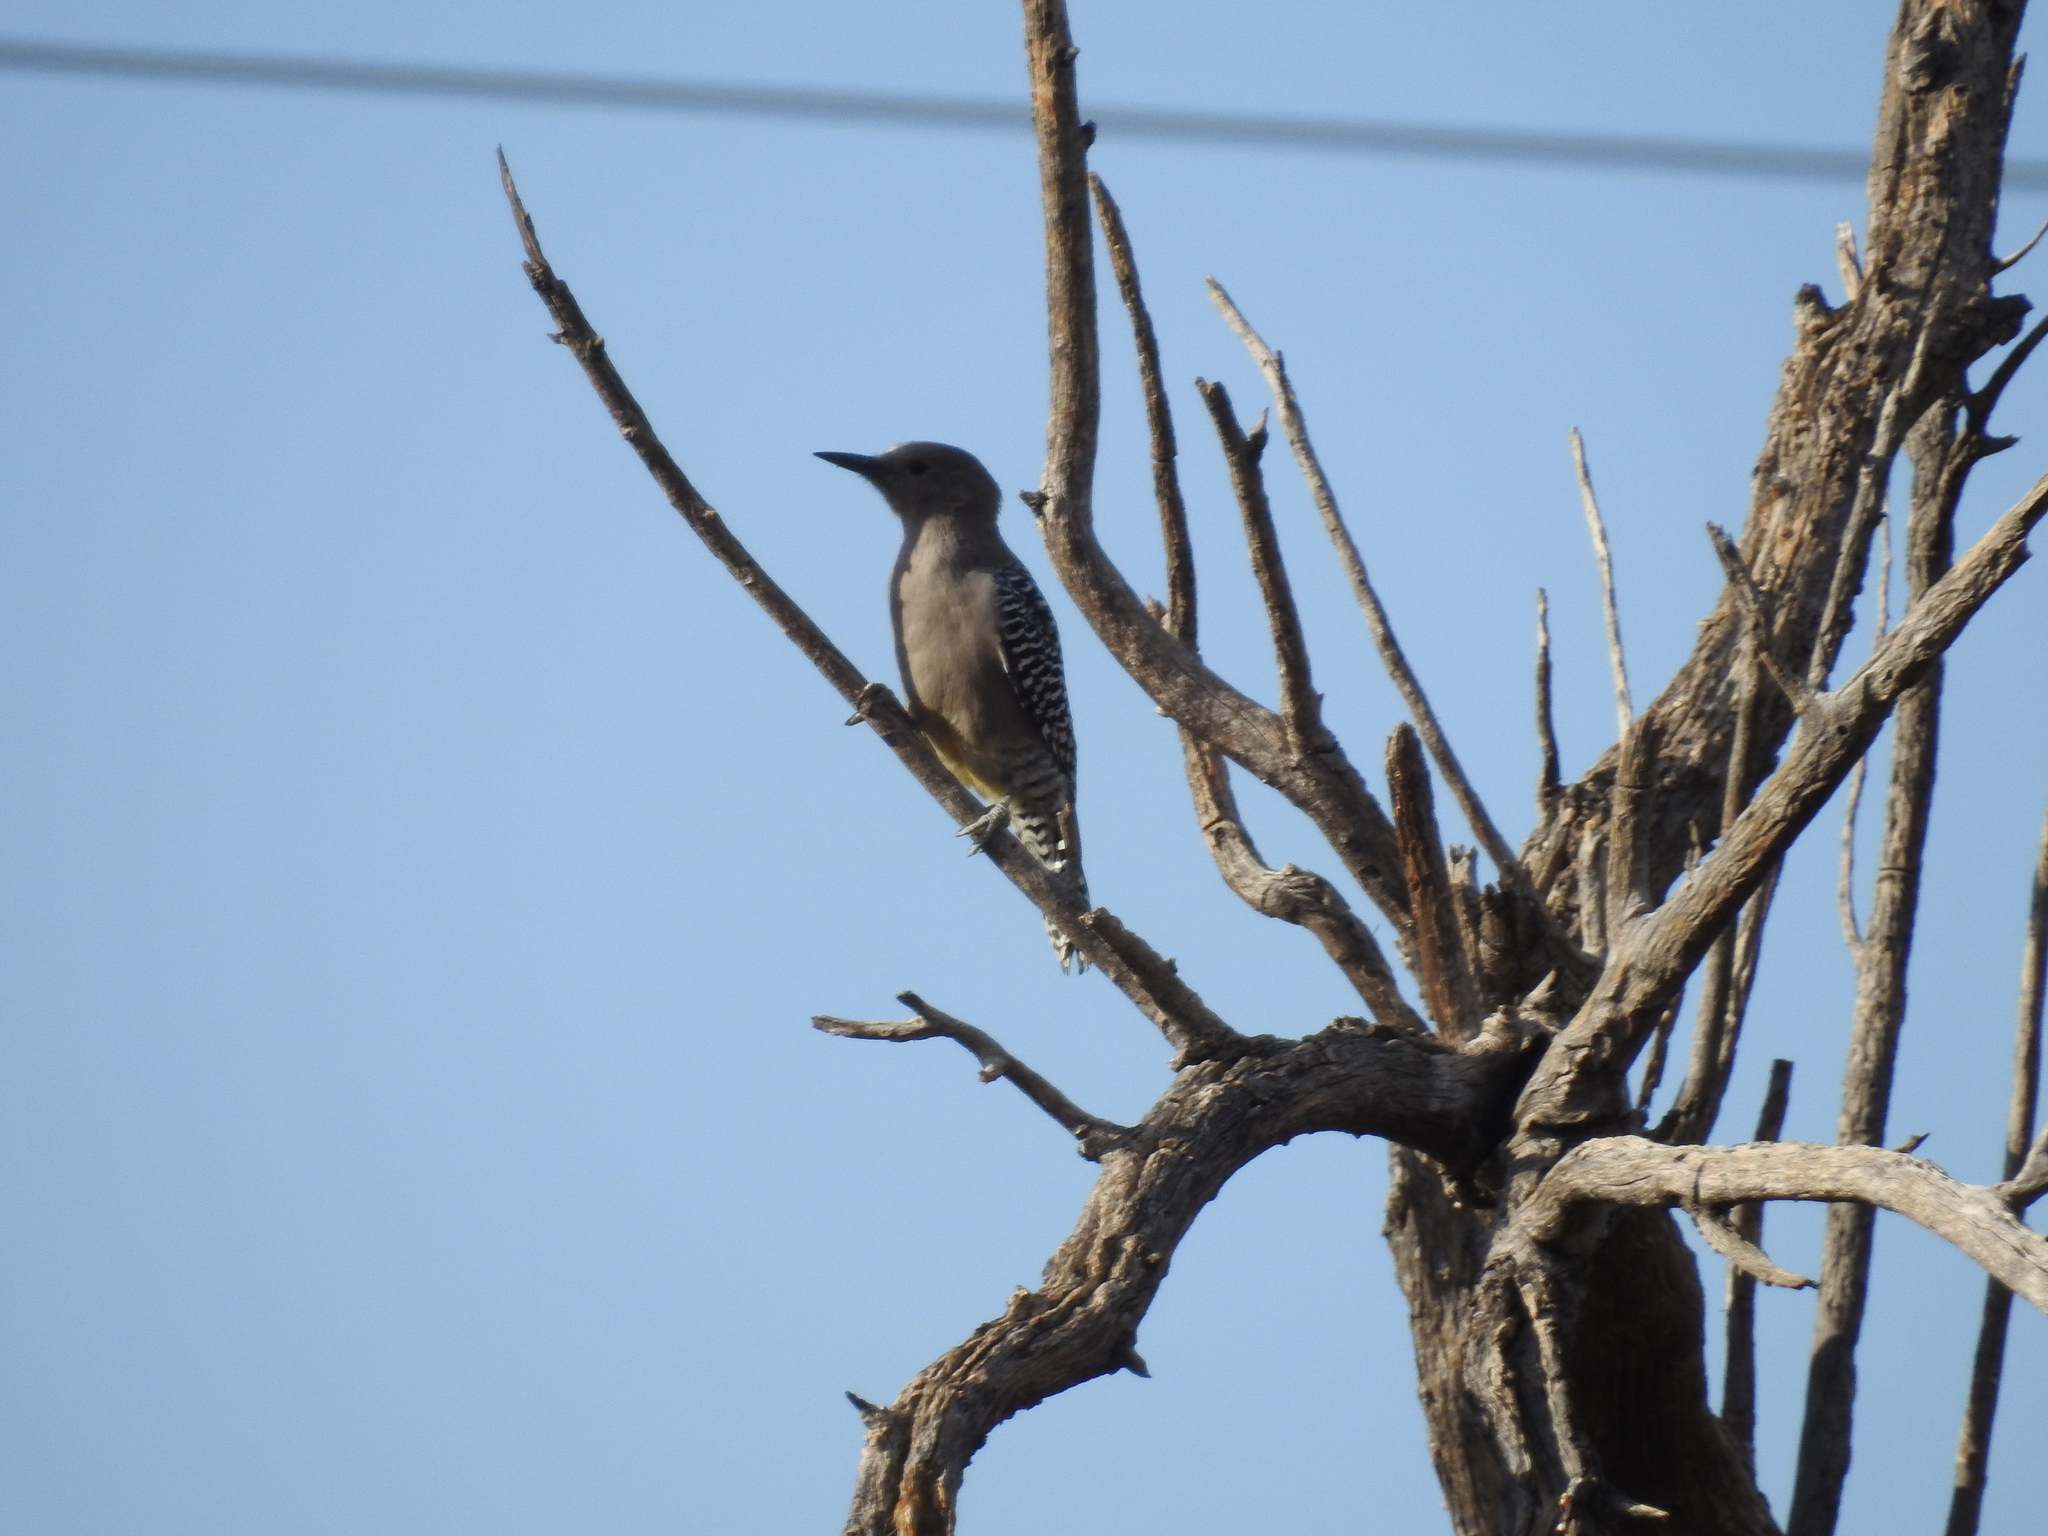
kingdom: Animalia
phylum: Chordata
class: Aves
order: Piciformes
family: Picidae
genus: Melanerpes
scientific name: Melanerpes uropygialis
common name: Gila woodpecker
